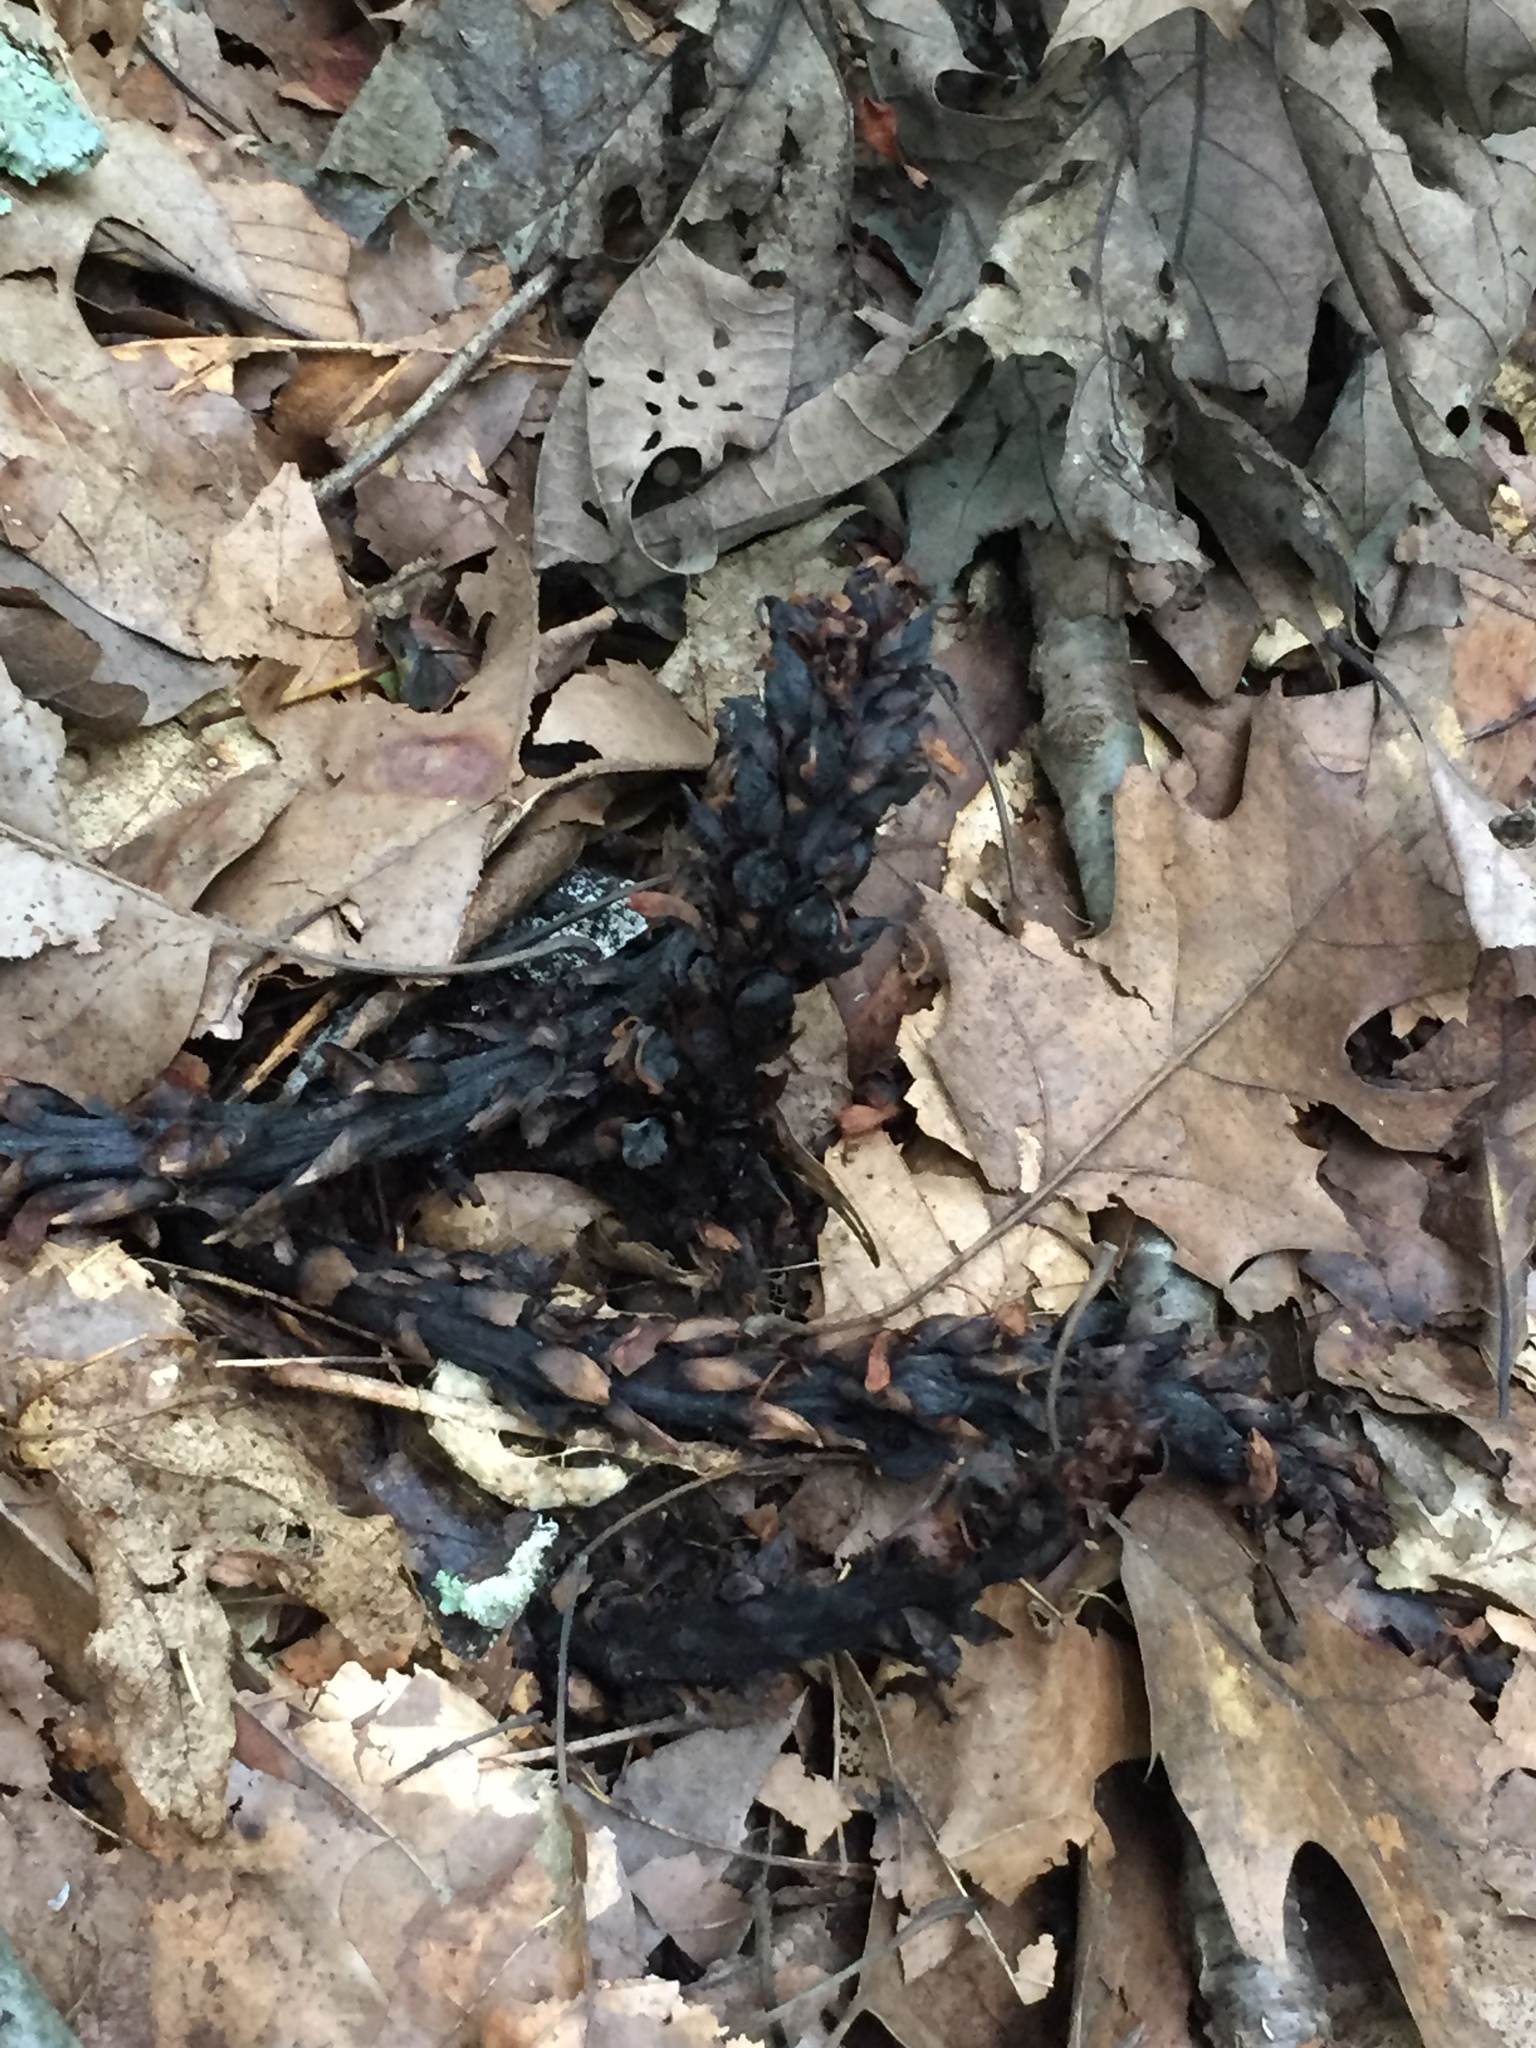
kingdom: Plantae
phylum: Tracheophyta
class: Magnoliopsida
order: Lamiales
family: Orobanchaceae
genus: Conopholis
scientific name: Conopholis americana
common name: American cancer-root
